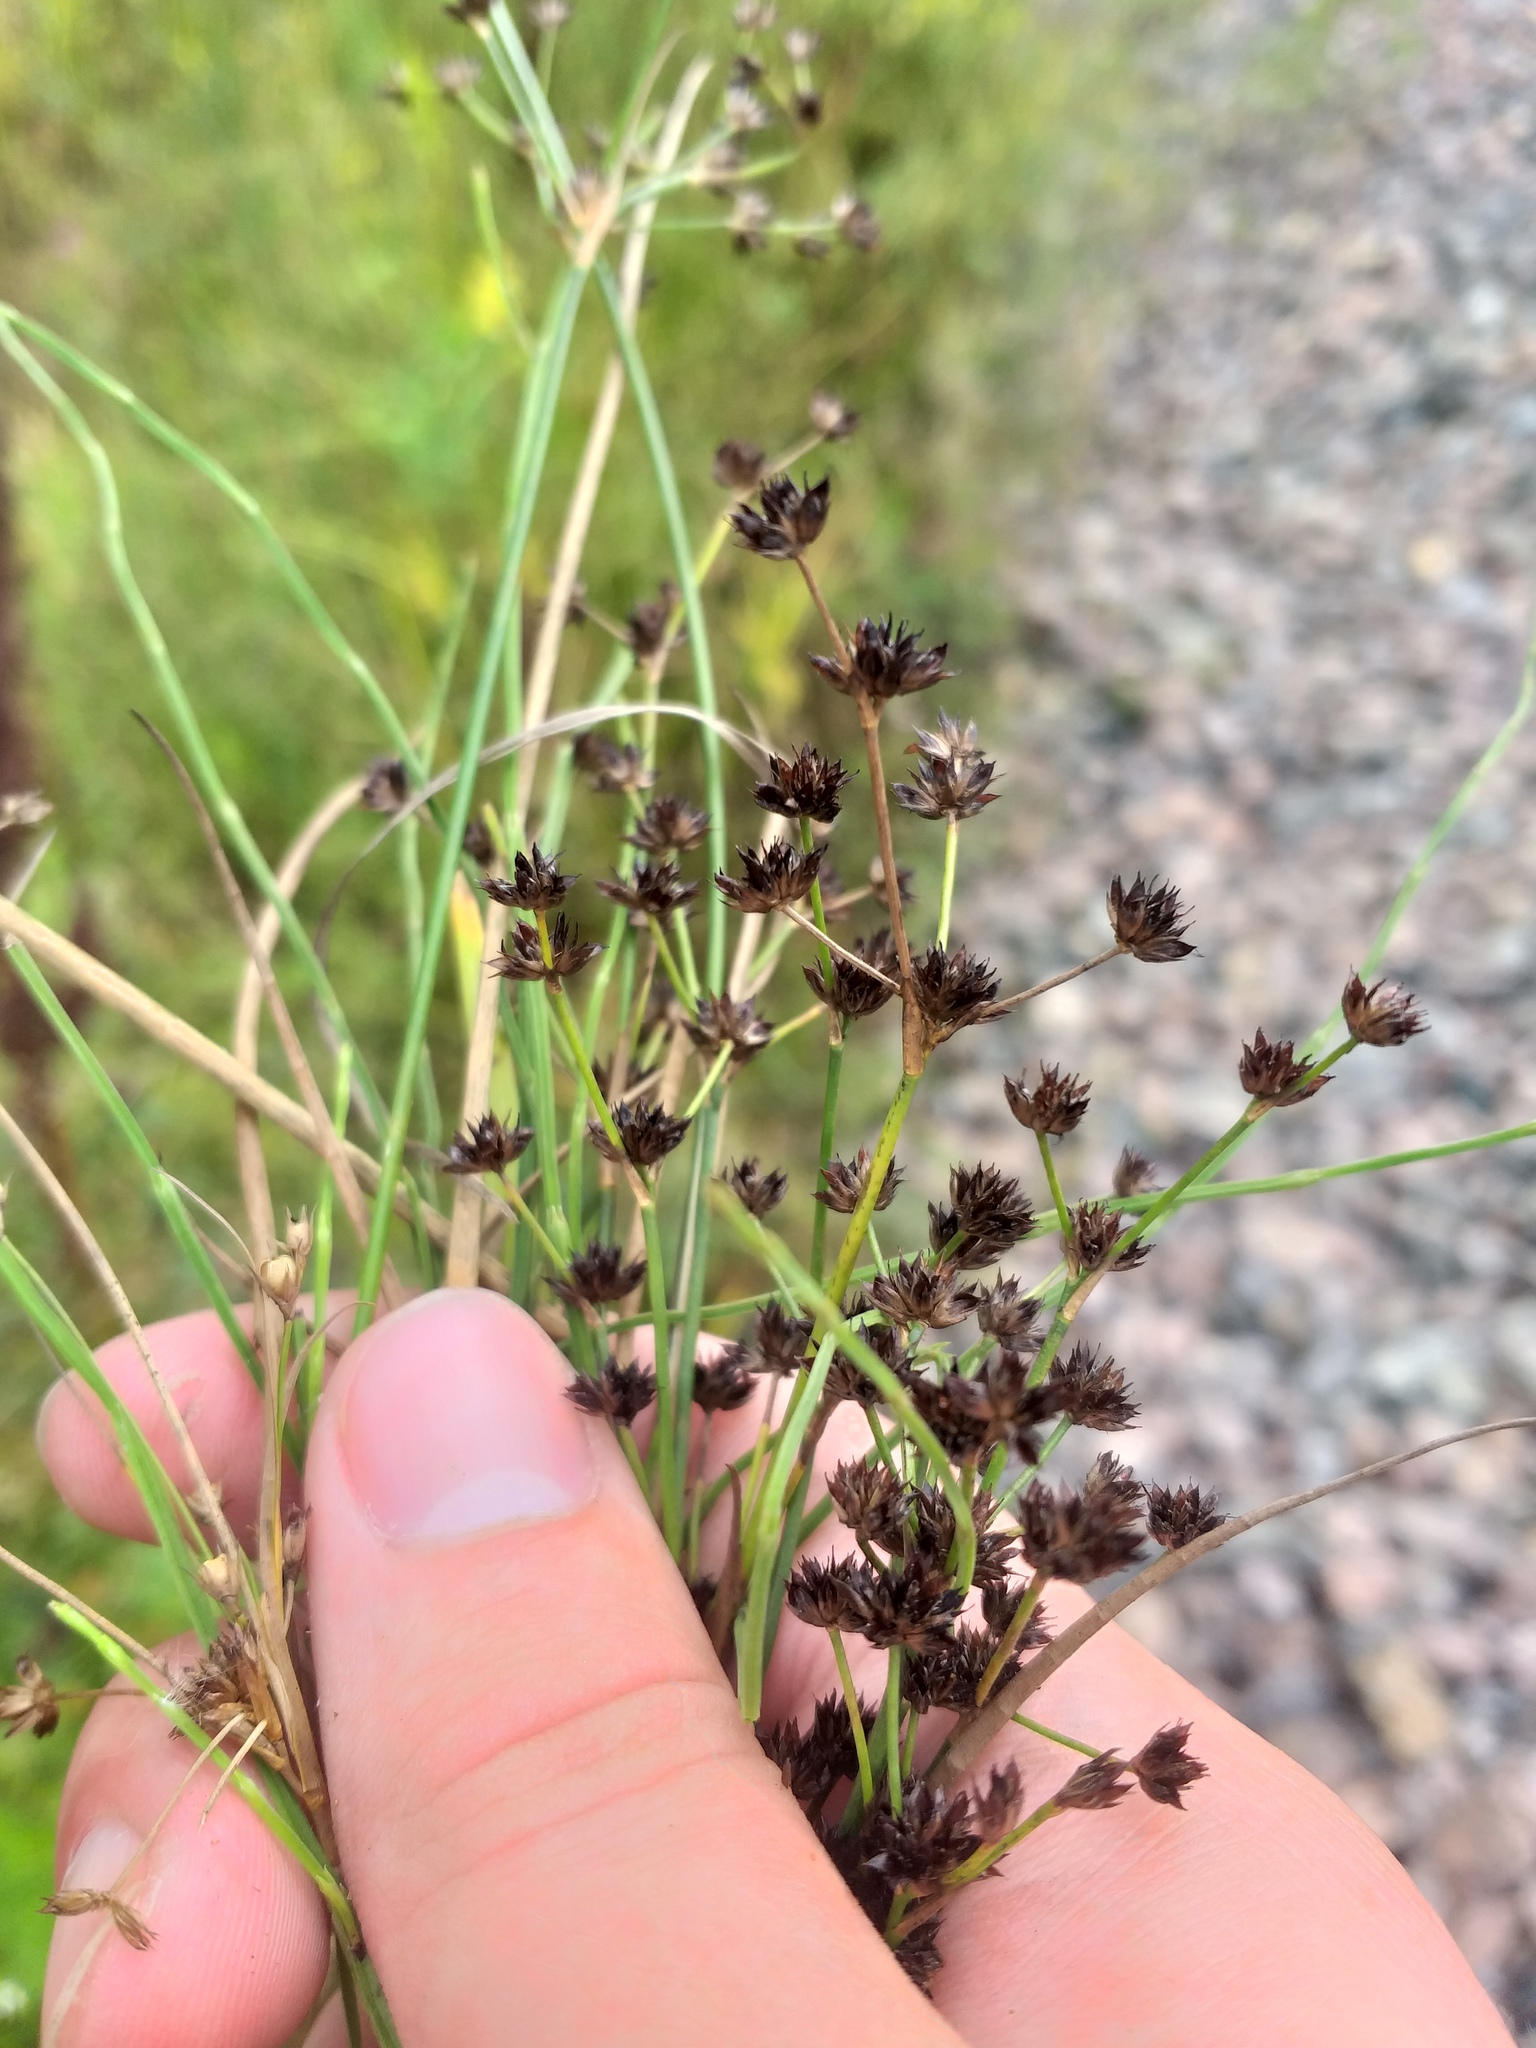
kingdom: Plantae
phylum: Tracheophyta
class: Liliopsida
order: Poales
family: Juncaceae
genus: Juncus
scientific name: Juncus articulatus
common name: Jointed rush
